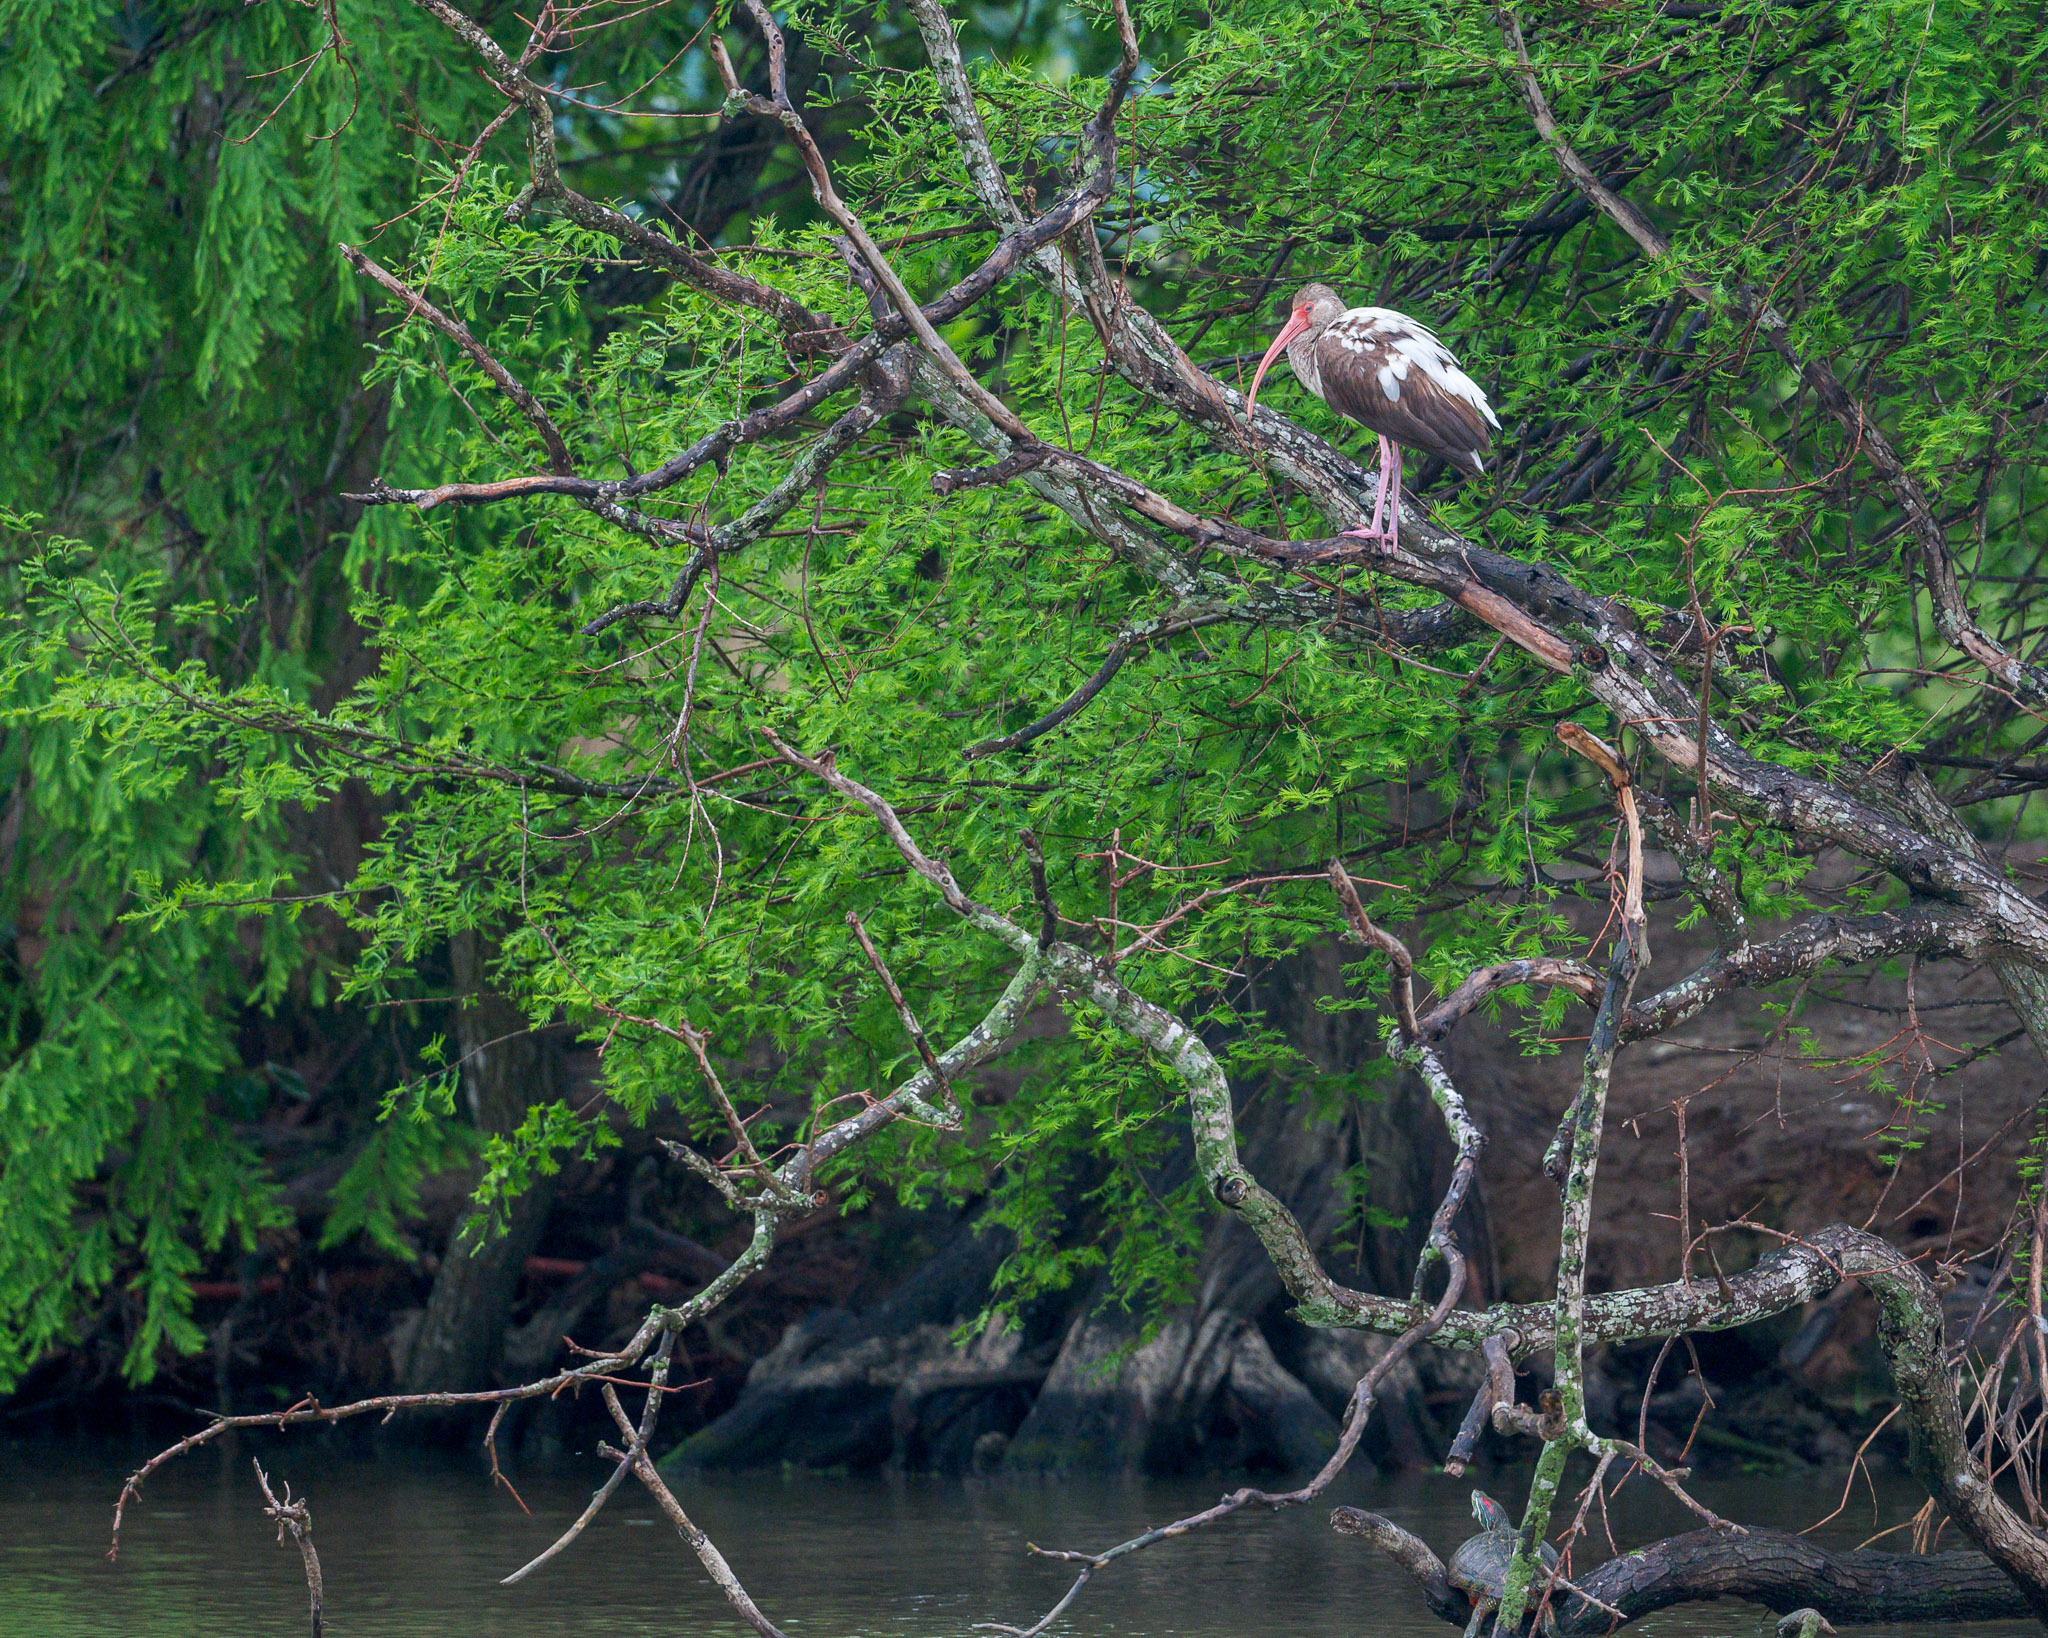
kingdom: Animalia
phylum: Chordata
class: Aves
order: Pelecaniformes
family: Threskiornithidae
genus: Eudocimus
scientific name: Eudocimus albus
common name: White ibis
